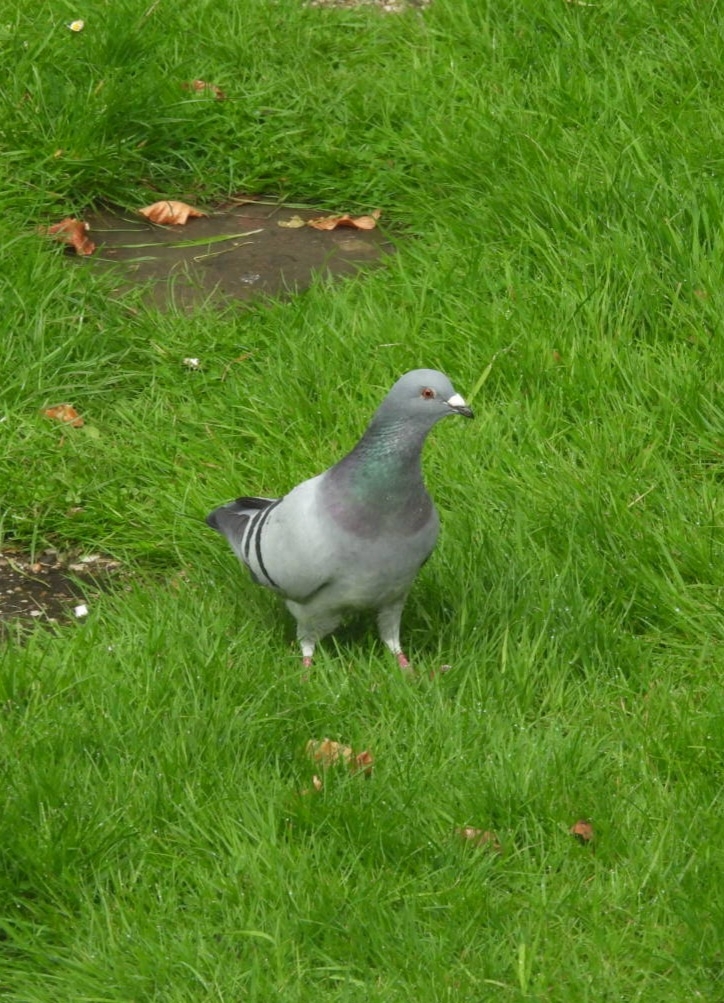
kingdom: Animalia
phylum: Chordata
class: Aves
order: Columbiformes
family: Columbidae
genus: Columba
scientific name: Columba livia
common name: Rock pigeon
